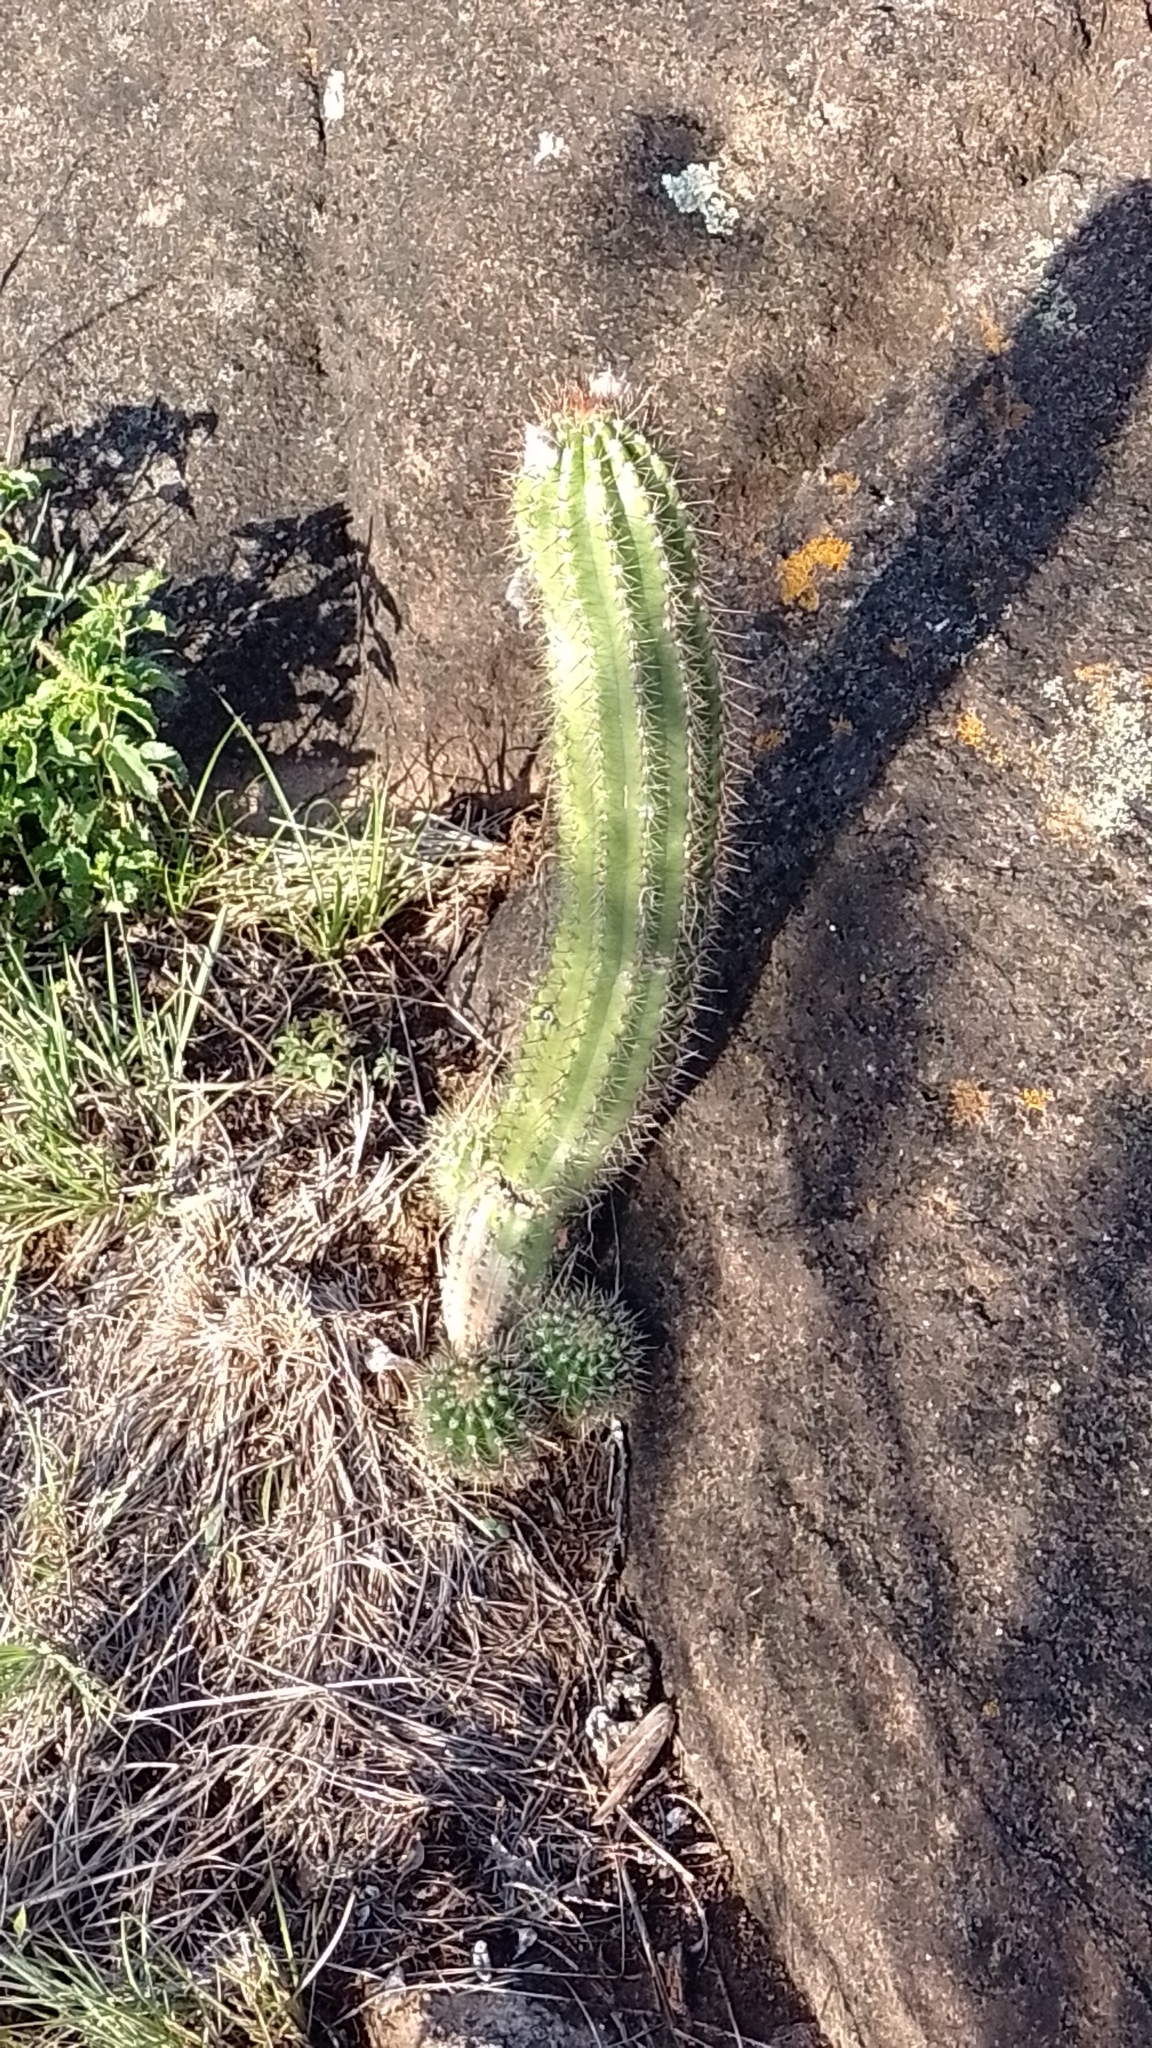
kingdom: Plantae
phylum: Tracheophyta
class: Magnoliopsida
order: Caryophyllales
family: Cactaceae
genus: Soehrensia
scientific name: Soehrensia candicans
